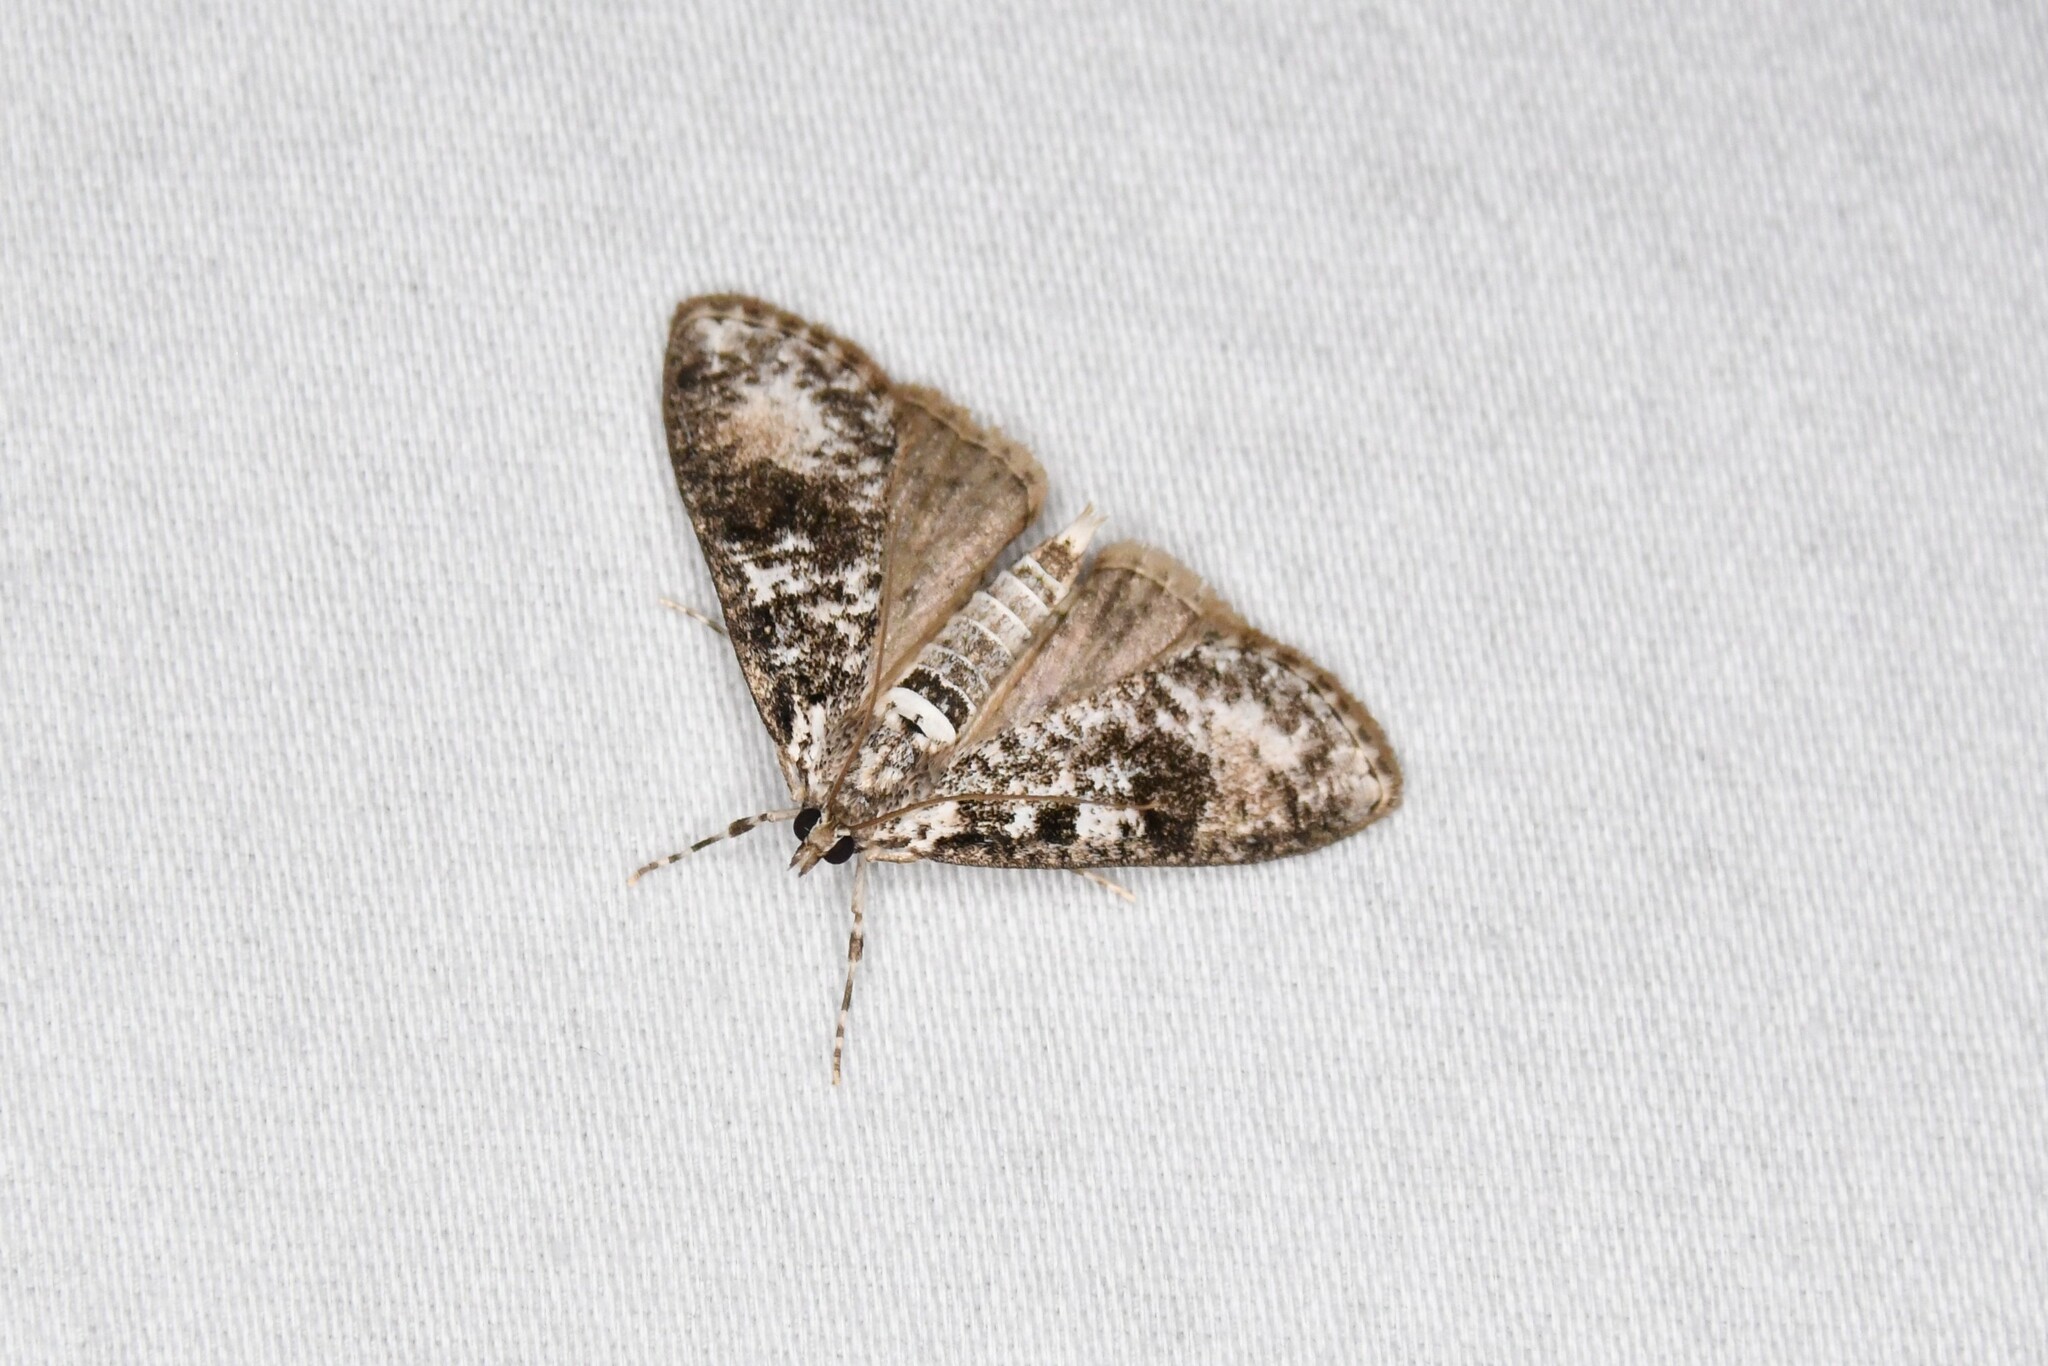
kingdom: Animalia
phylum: Arthropoda
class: Insecta
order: Lepidoptera
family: Crambidae
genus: Palpita
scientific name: Palpita magniferalis
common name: Splendid palpita moth
